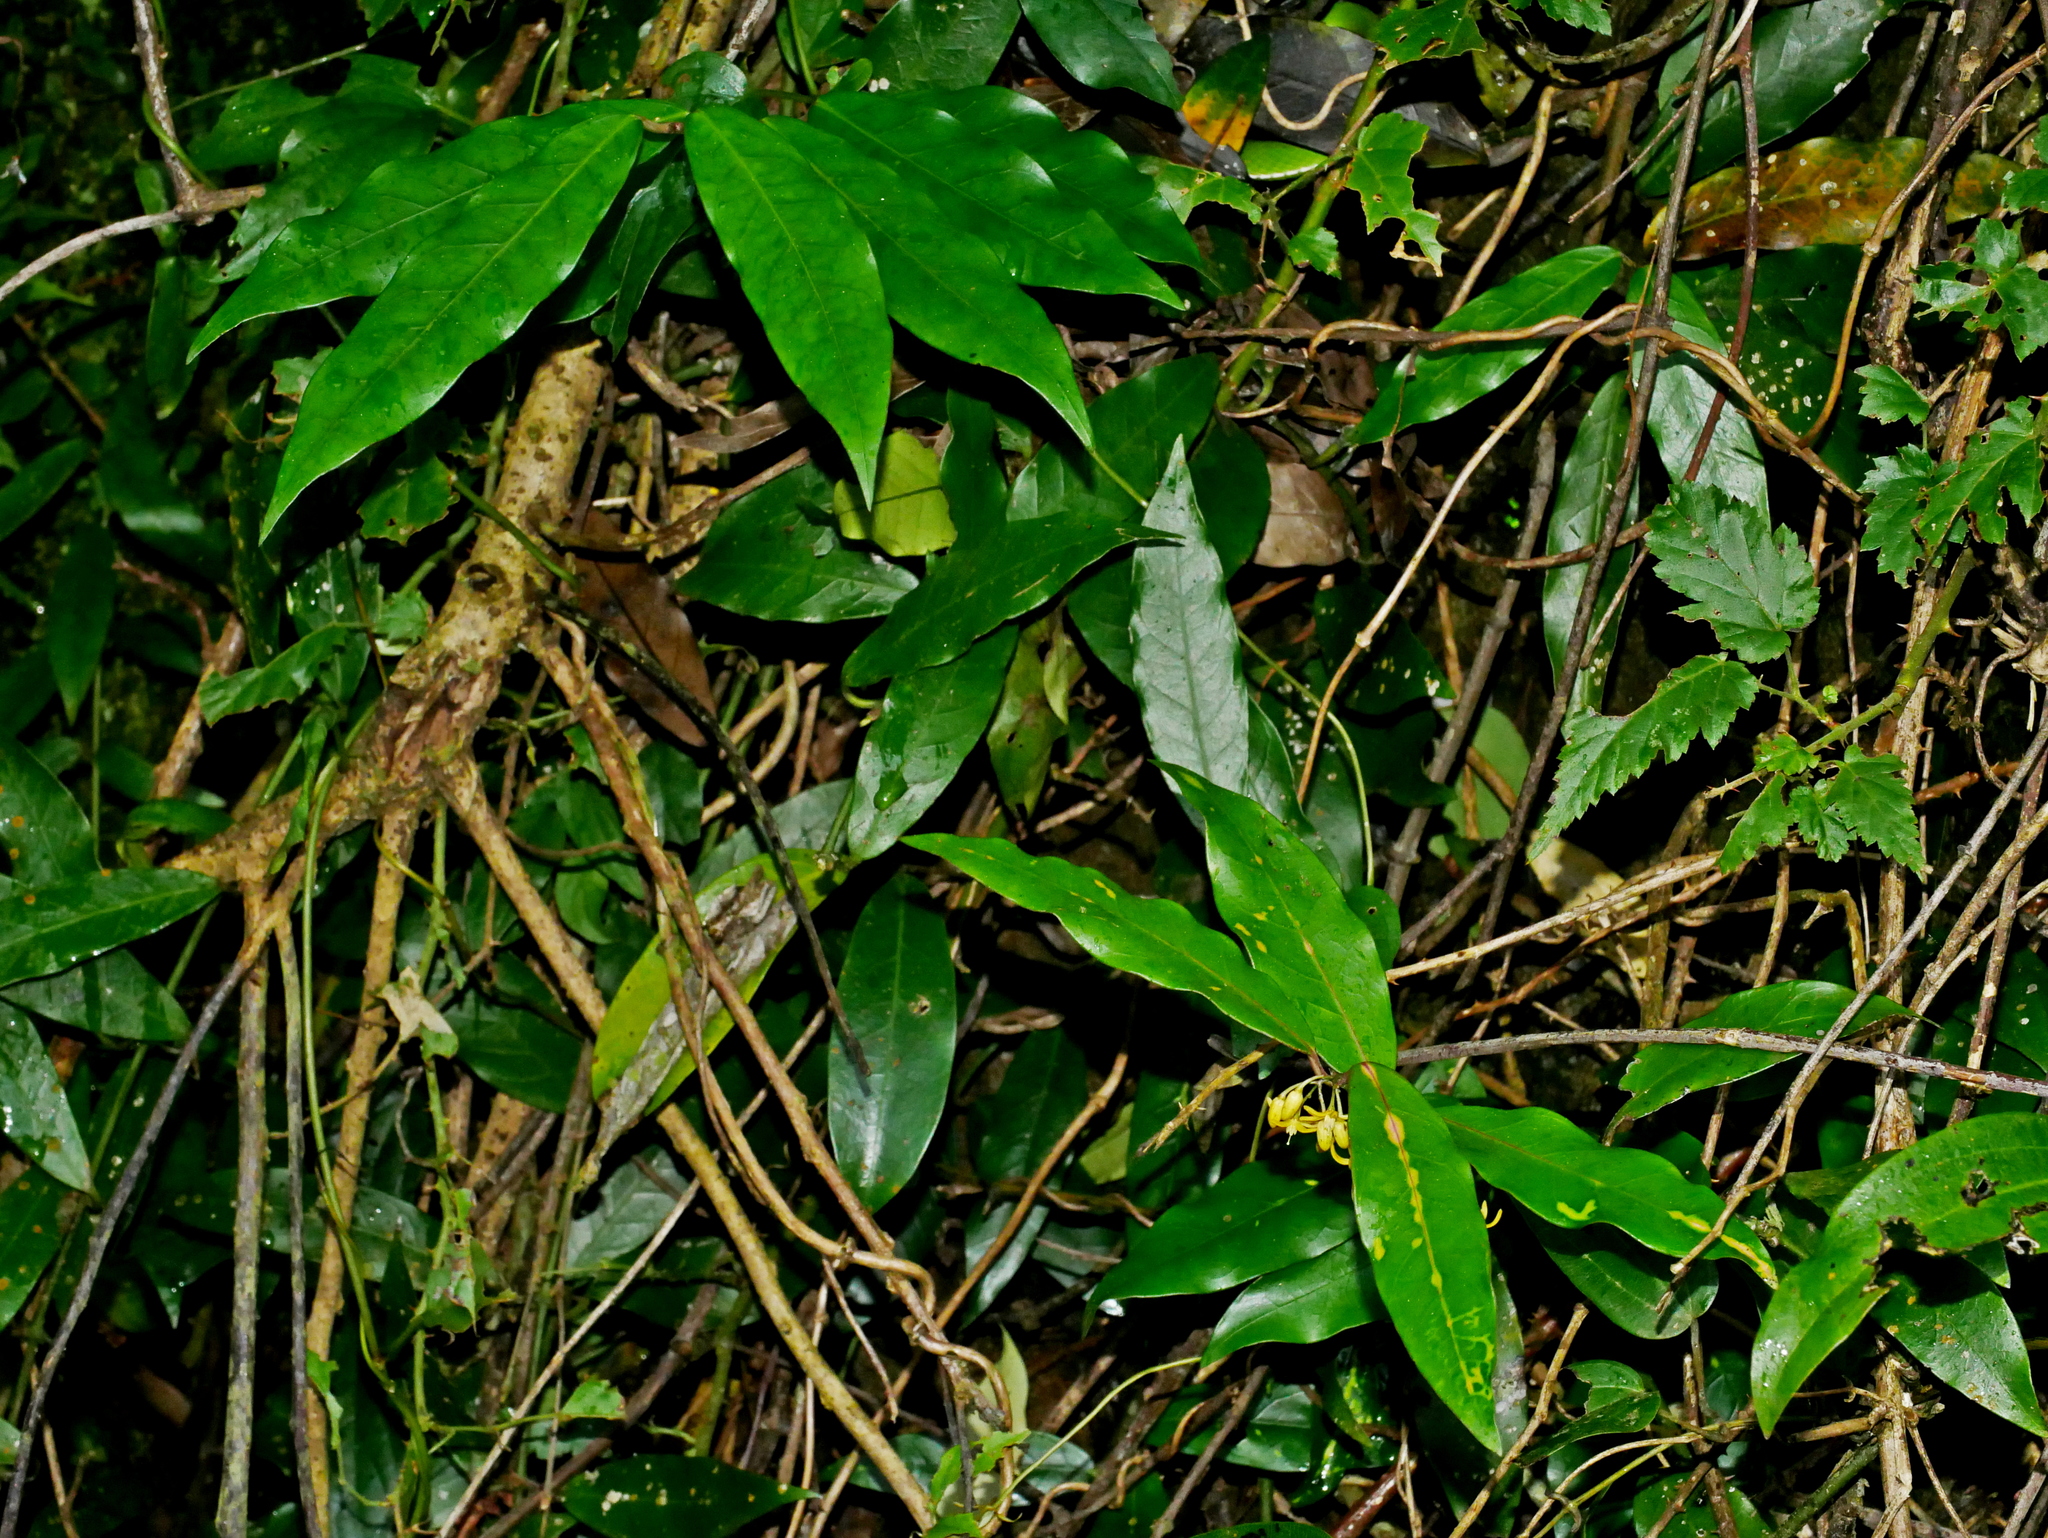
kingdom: Plantae
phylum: Tracheophyta
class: Magnoliopsida
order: Gentianales
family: Loganiaceae
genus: Gardneria
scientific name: Gardneria multiflora
